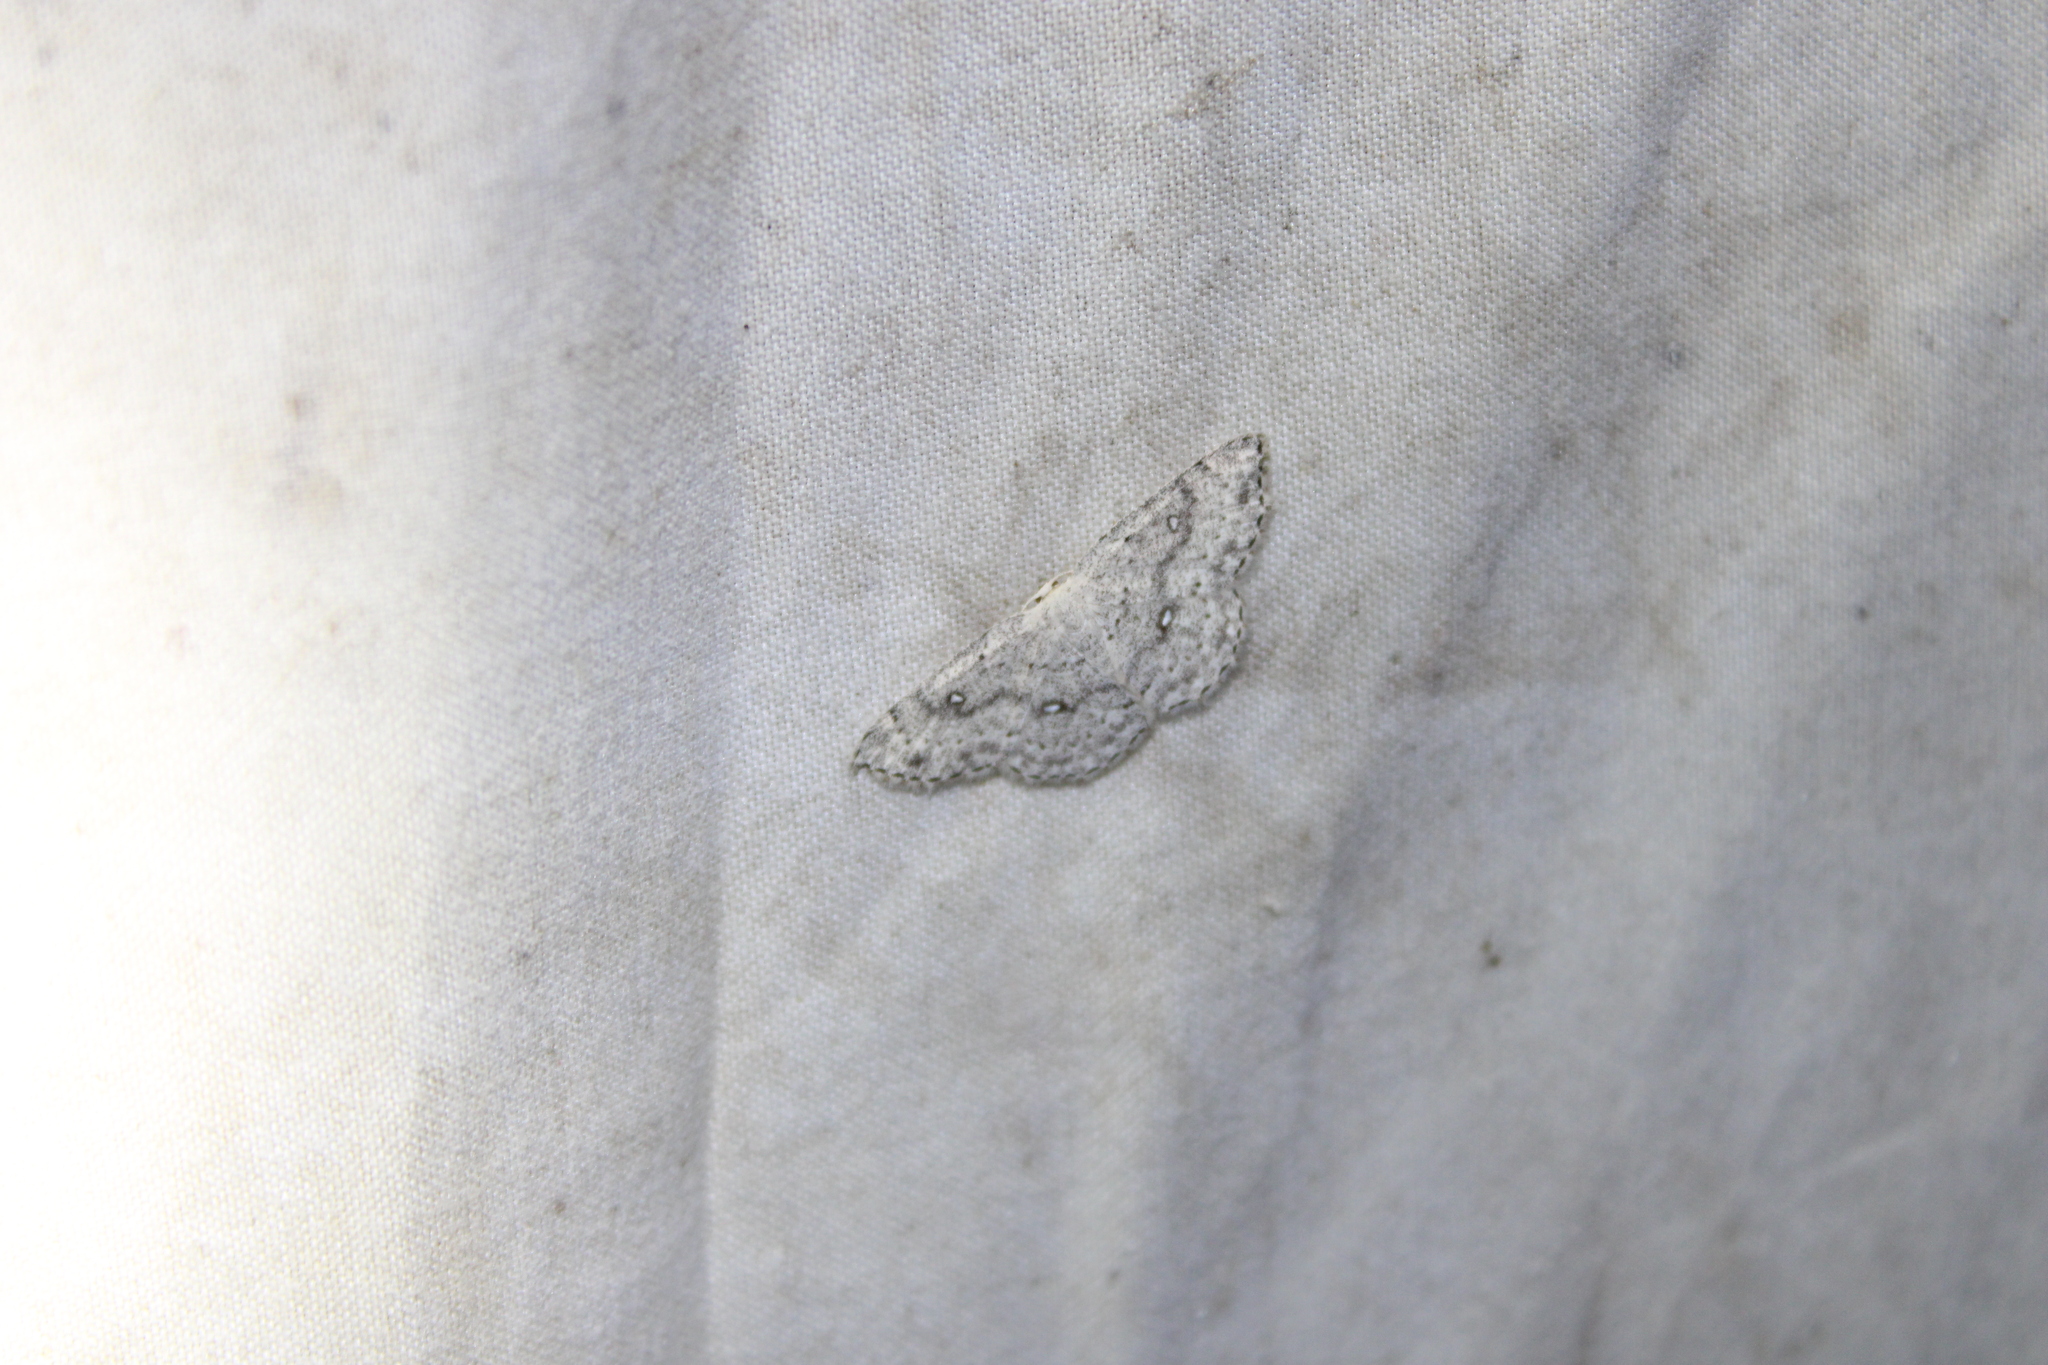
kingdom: Animalia
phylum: Arthropoda
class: Insecta
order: Lepidoptera
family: Geometridae
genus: Cyclophora
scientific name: Cyclophora pendulinaria
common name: Sweet fern geometer
